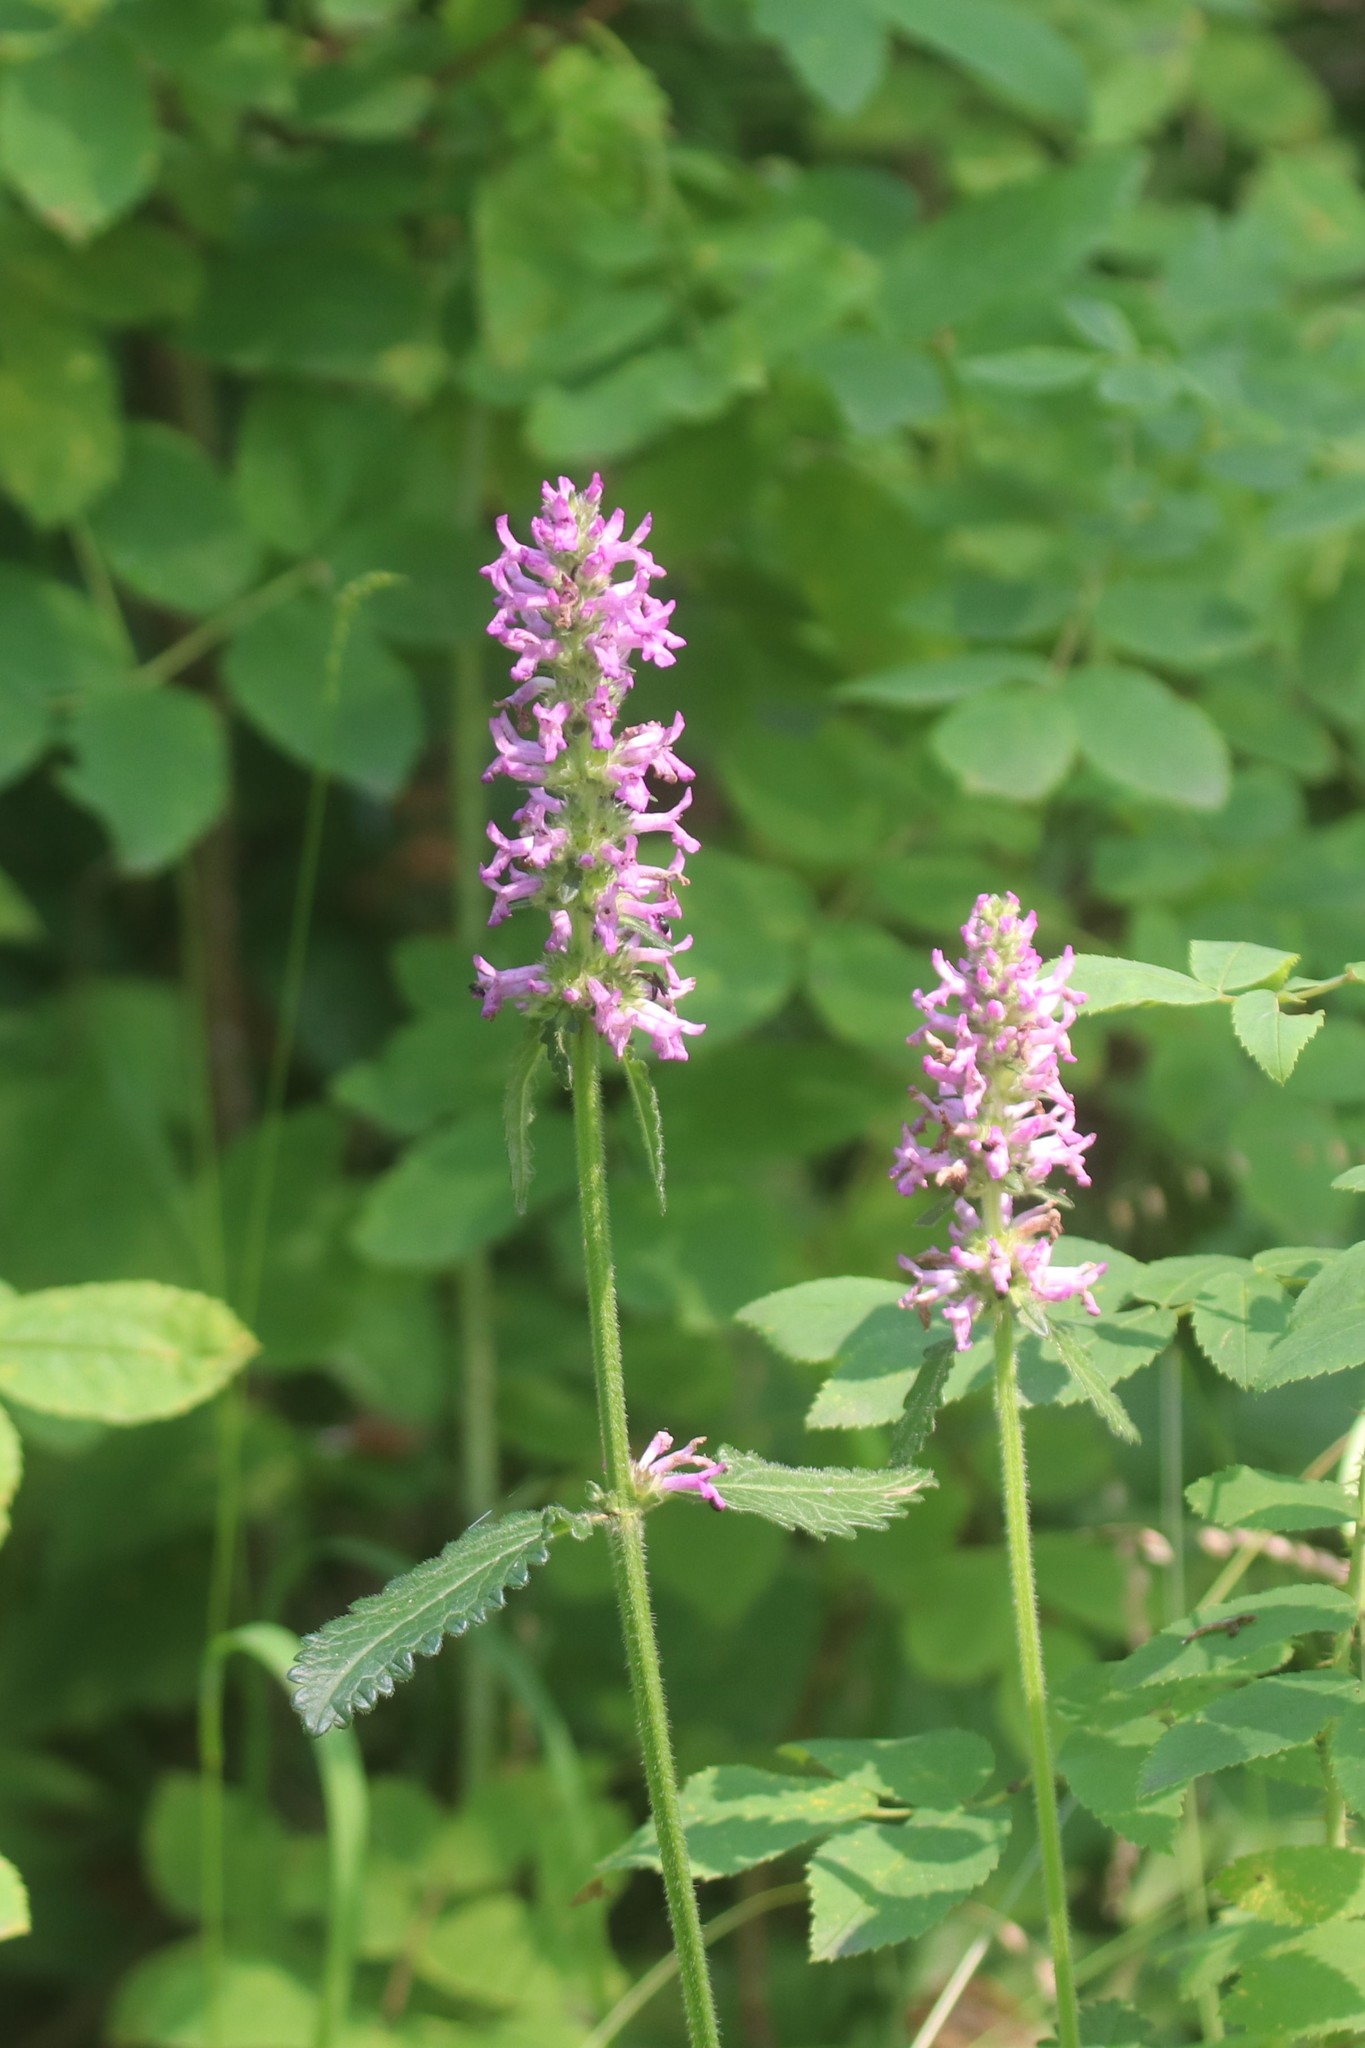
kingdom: Plantae
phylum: Tracheophyta
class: Magnoliopsida
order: Lamiales
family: Lamiaceae
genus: Betonica
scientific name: Betonica officinalis
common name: Bishop's-wort
